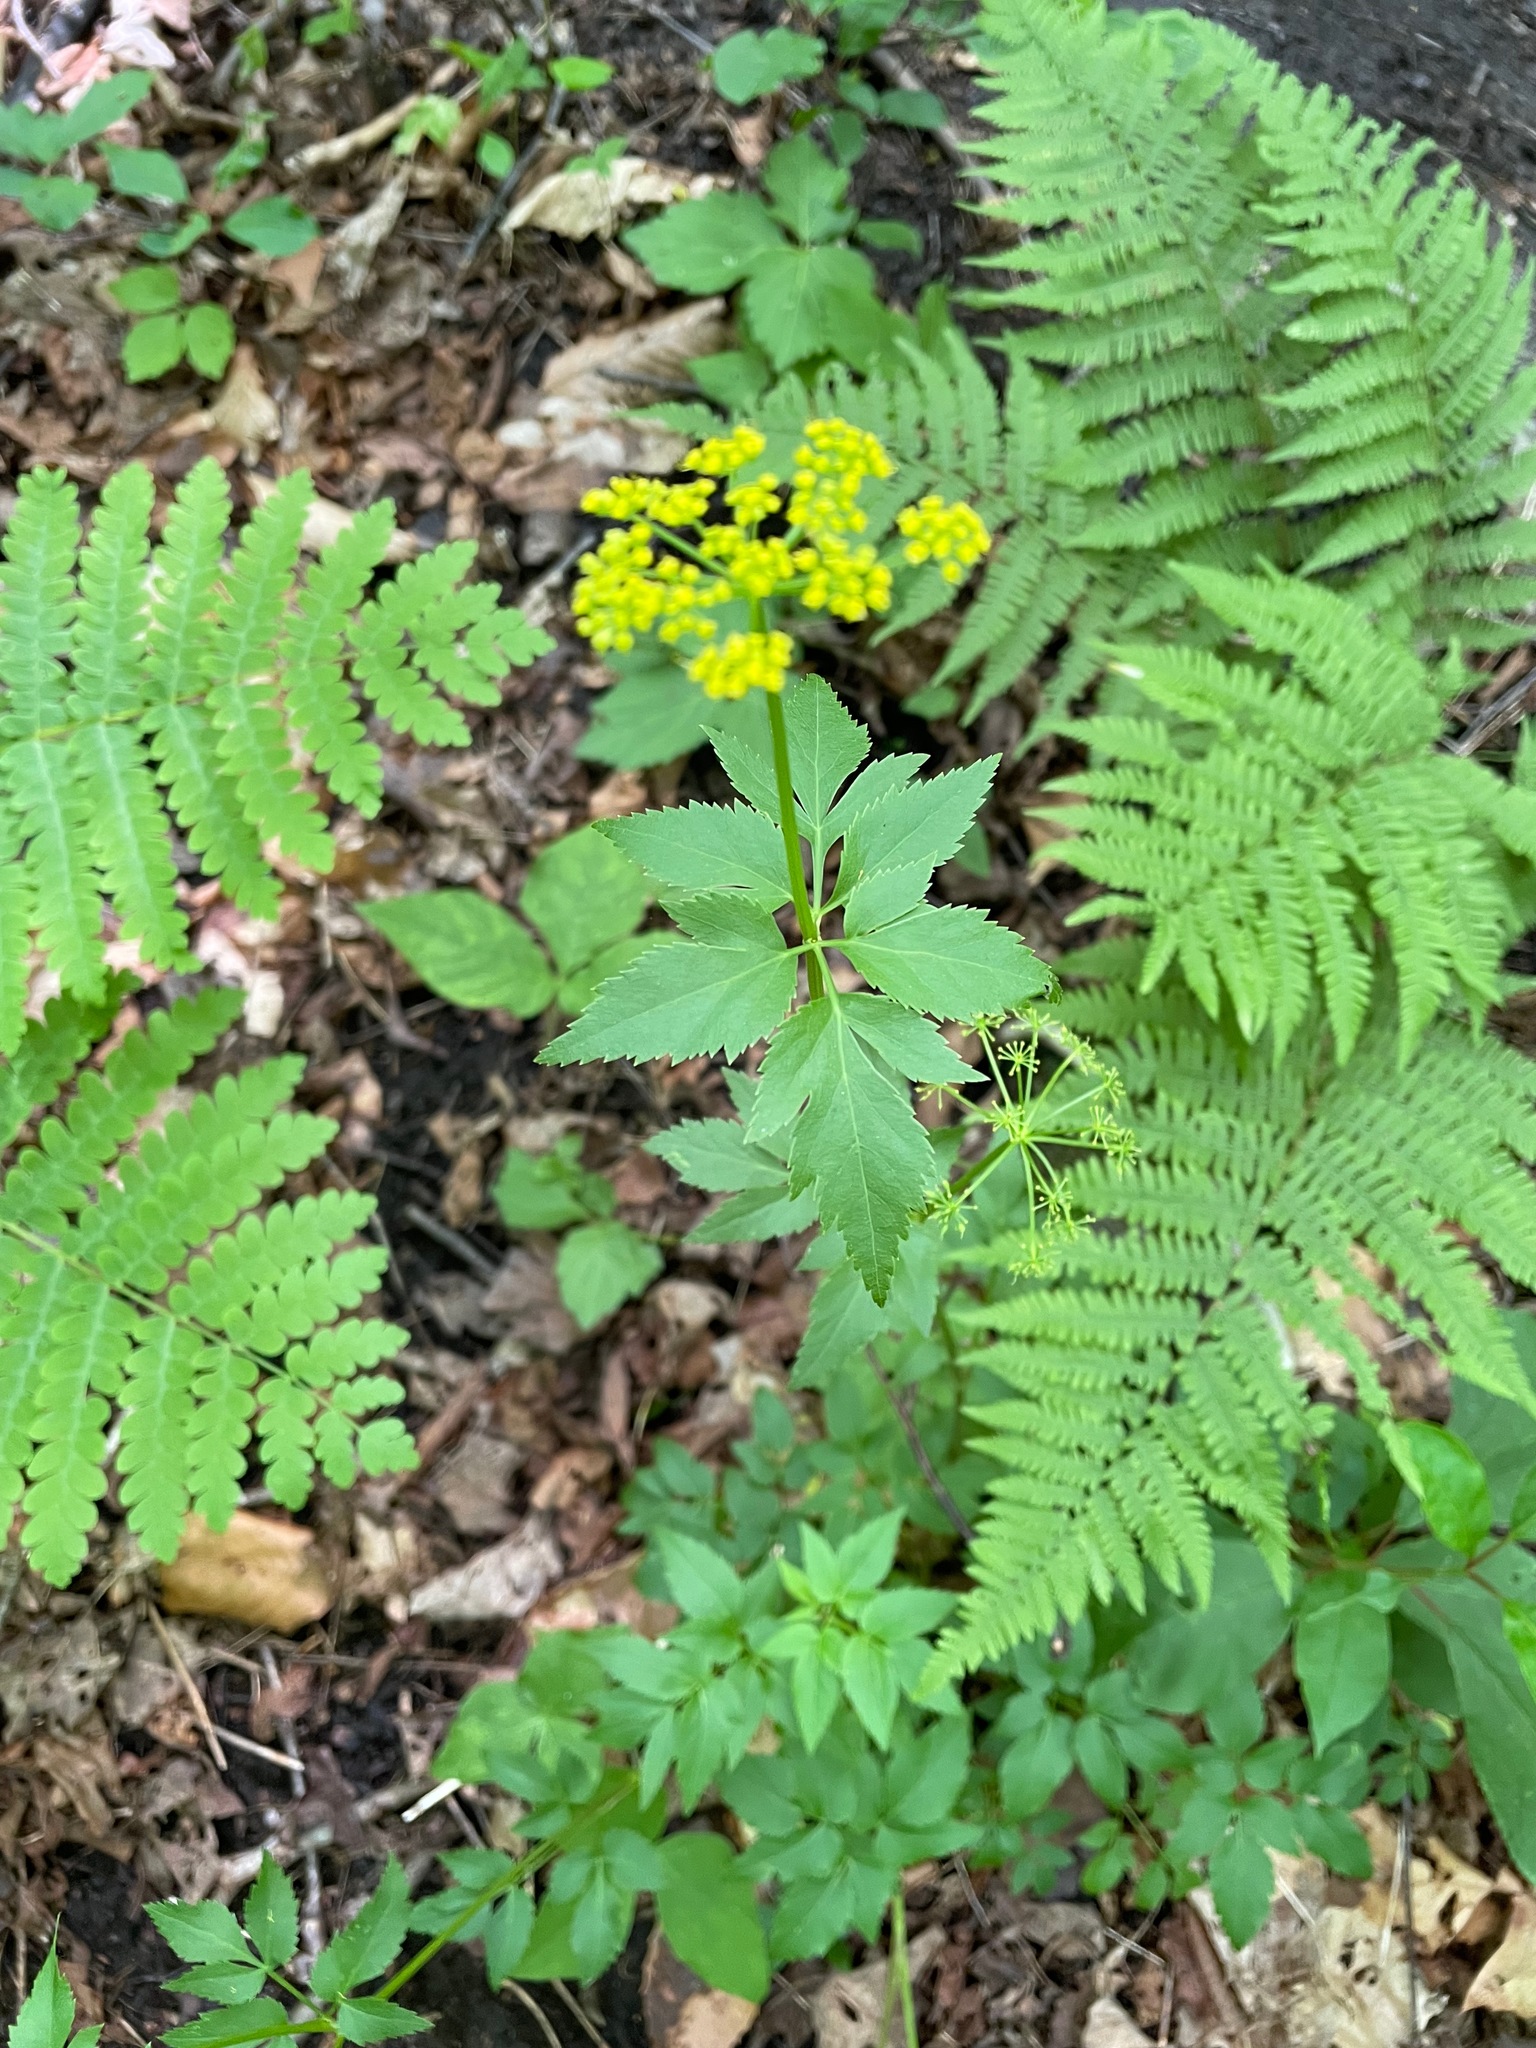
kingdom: Plantae
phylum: Tracheophyta
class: Magnoliopsida
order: Apiales
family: Apiaceae
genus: Zizia
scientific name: Zizia aurea
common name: Golden alexanders
